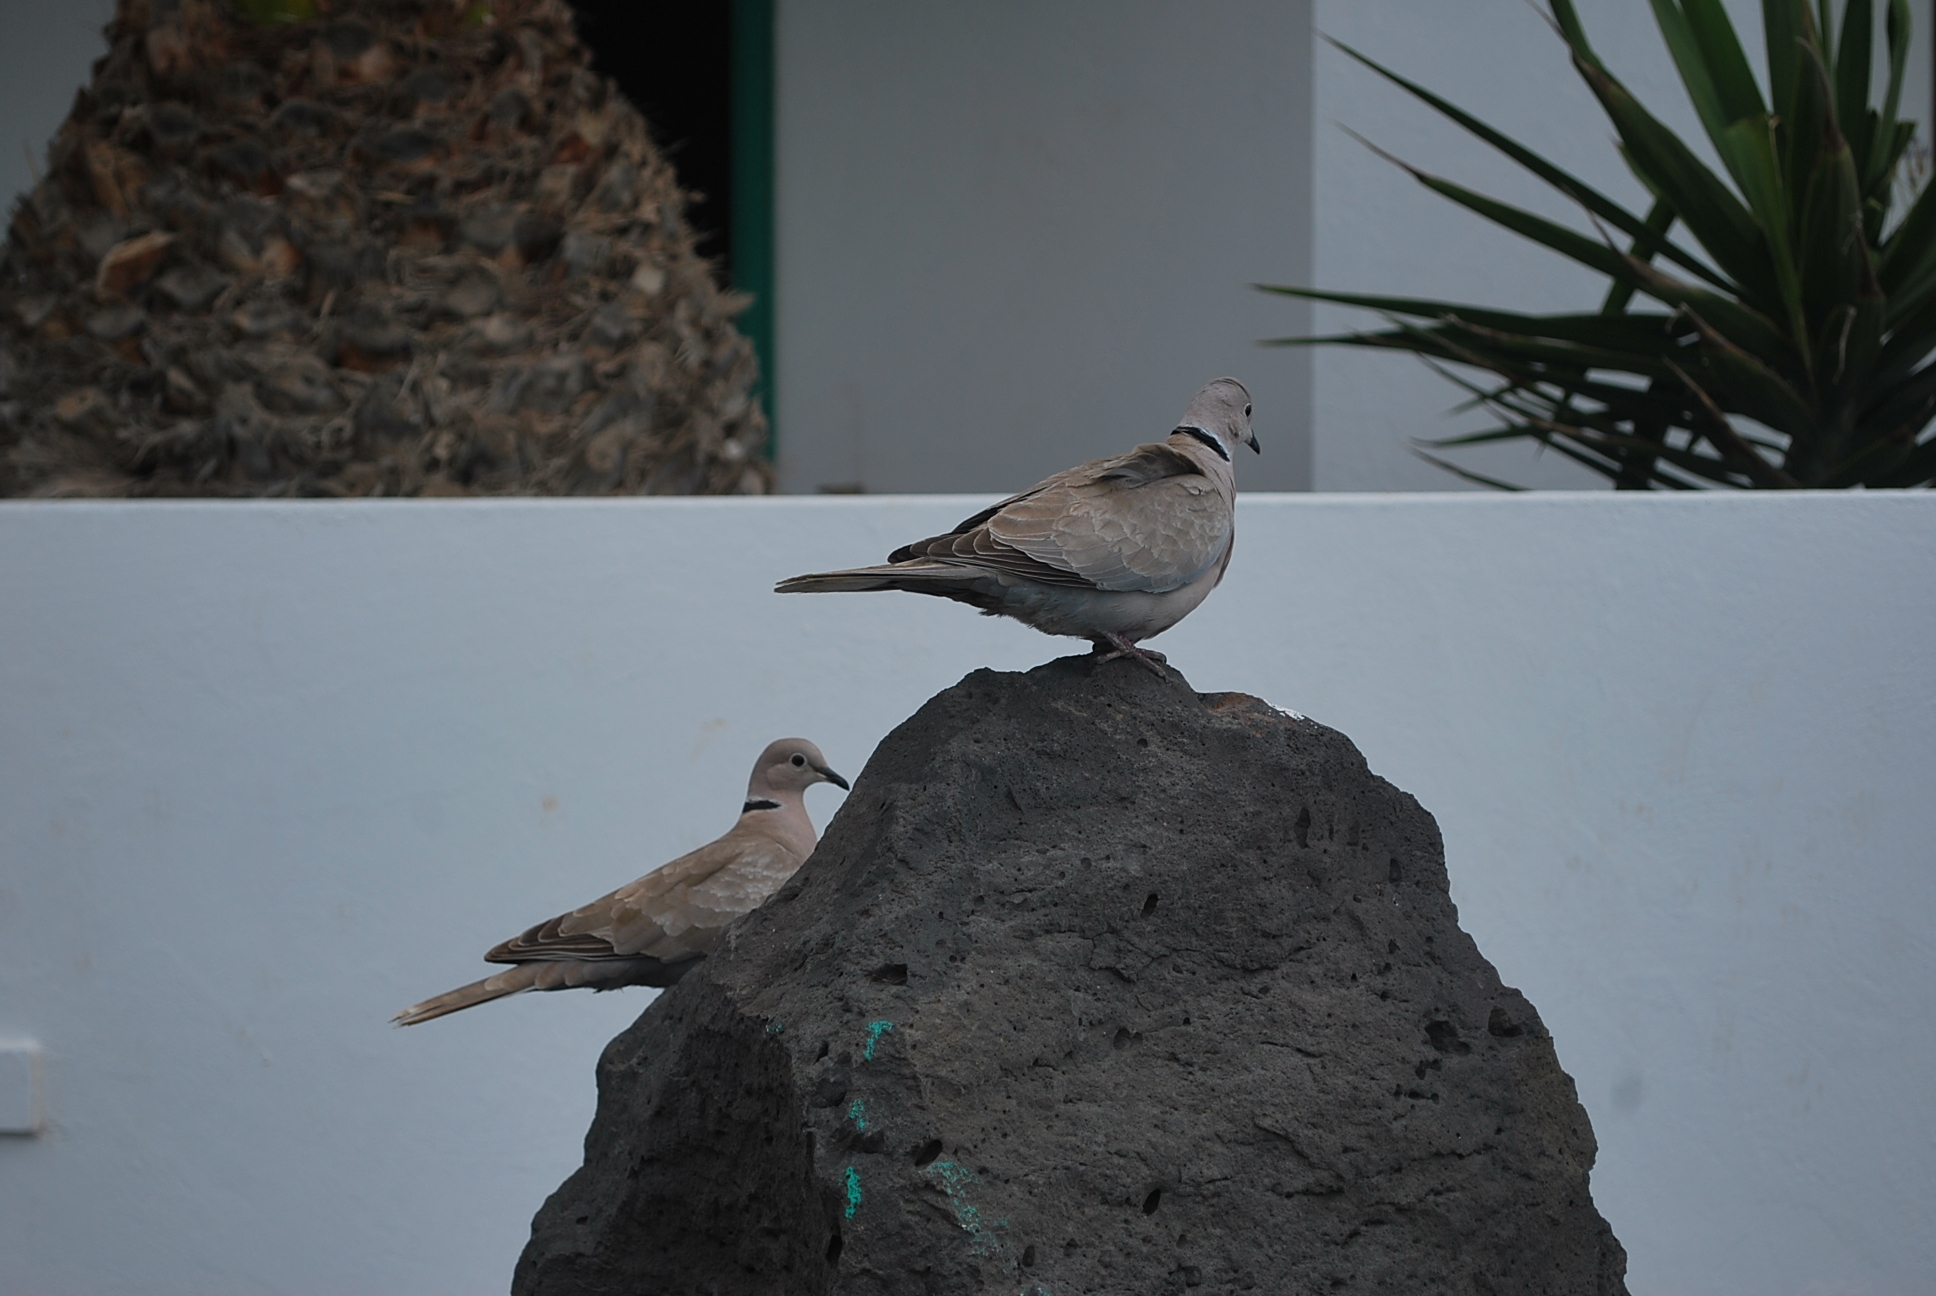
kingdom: Animalia
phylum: Chordata
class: Aves
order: Columbiformes
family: Columbidae
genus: Streptopelia
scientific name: Streptopelia decaocto
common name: Eurasian collared dove
